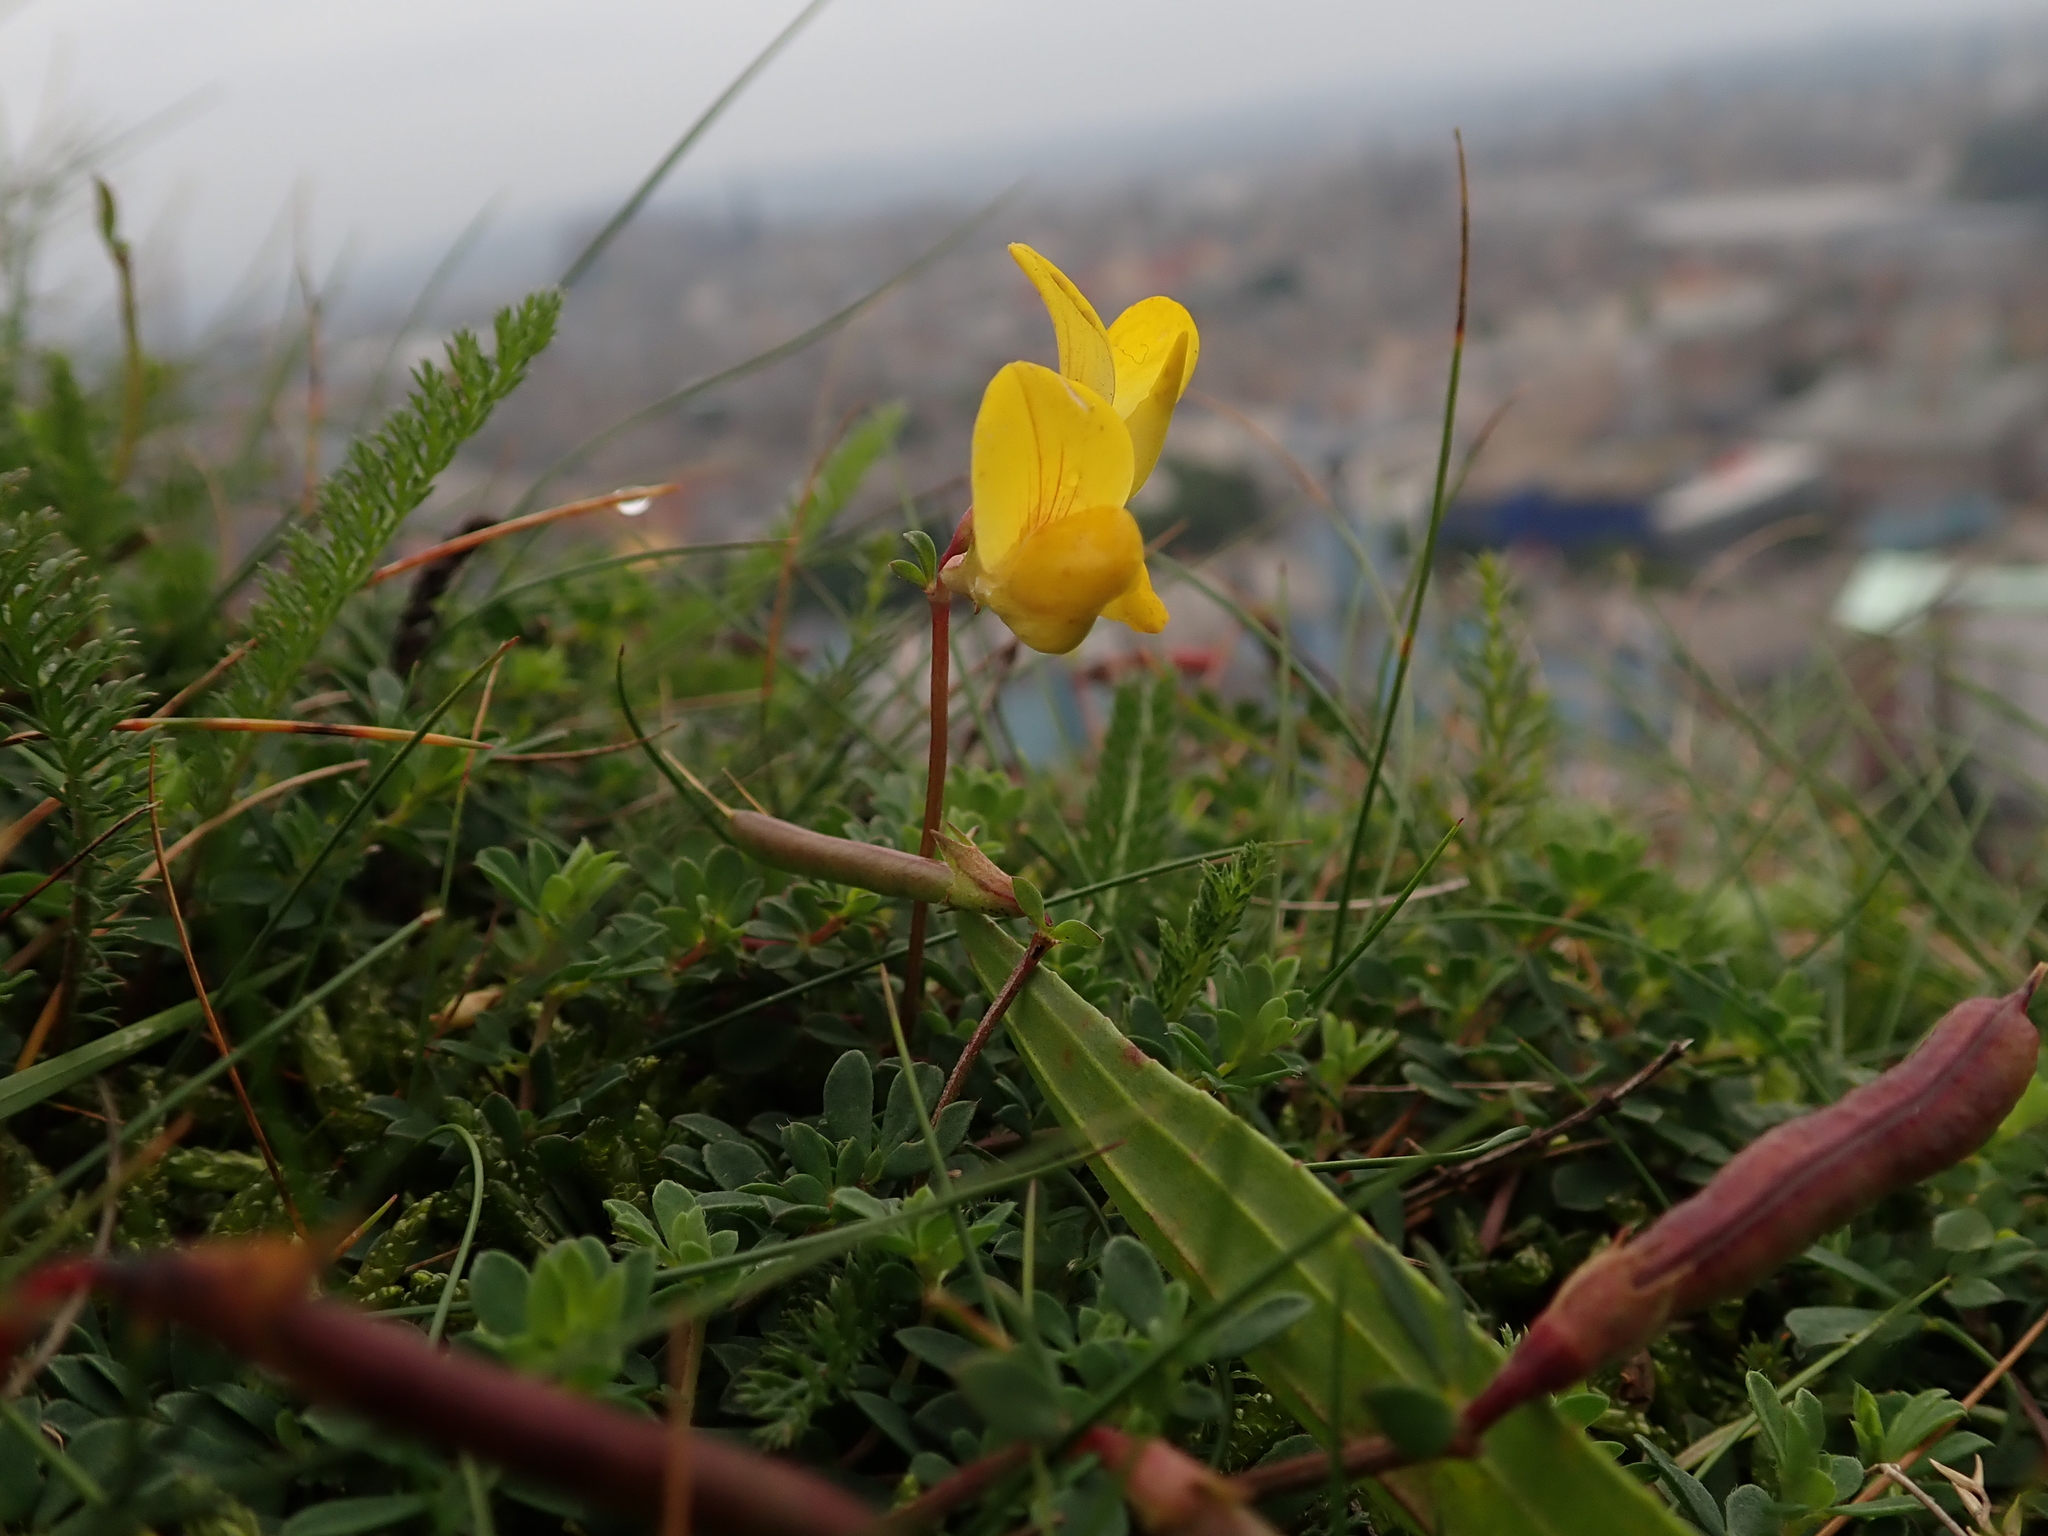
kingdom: Plantae
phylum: Tracheophyta
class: Magnoliopsida
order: Fabales
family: Fabaceae
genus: Lotus
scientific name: Lotus corniculatus
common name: Common bird's-foot-trefoil
